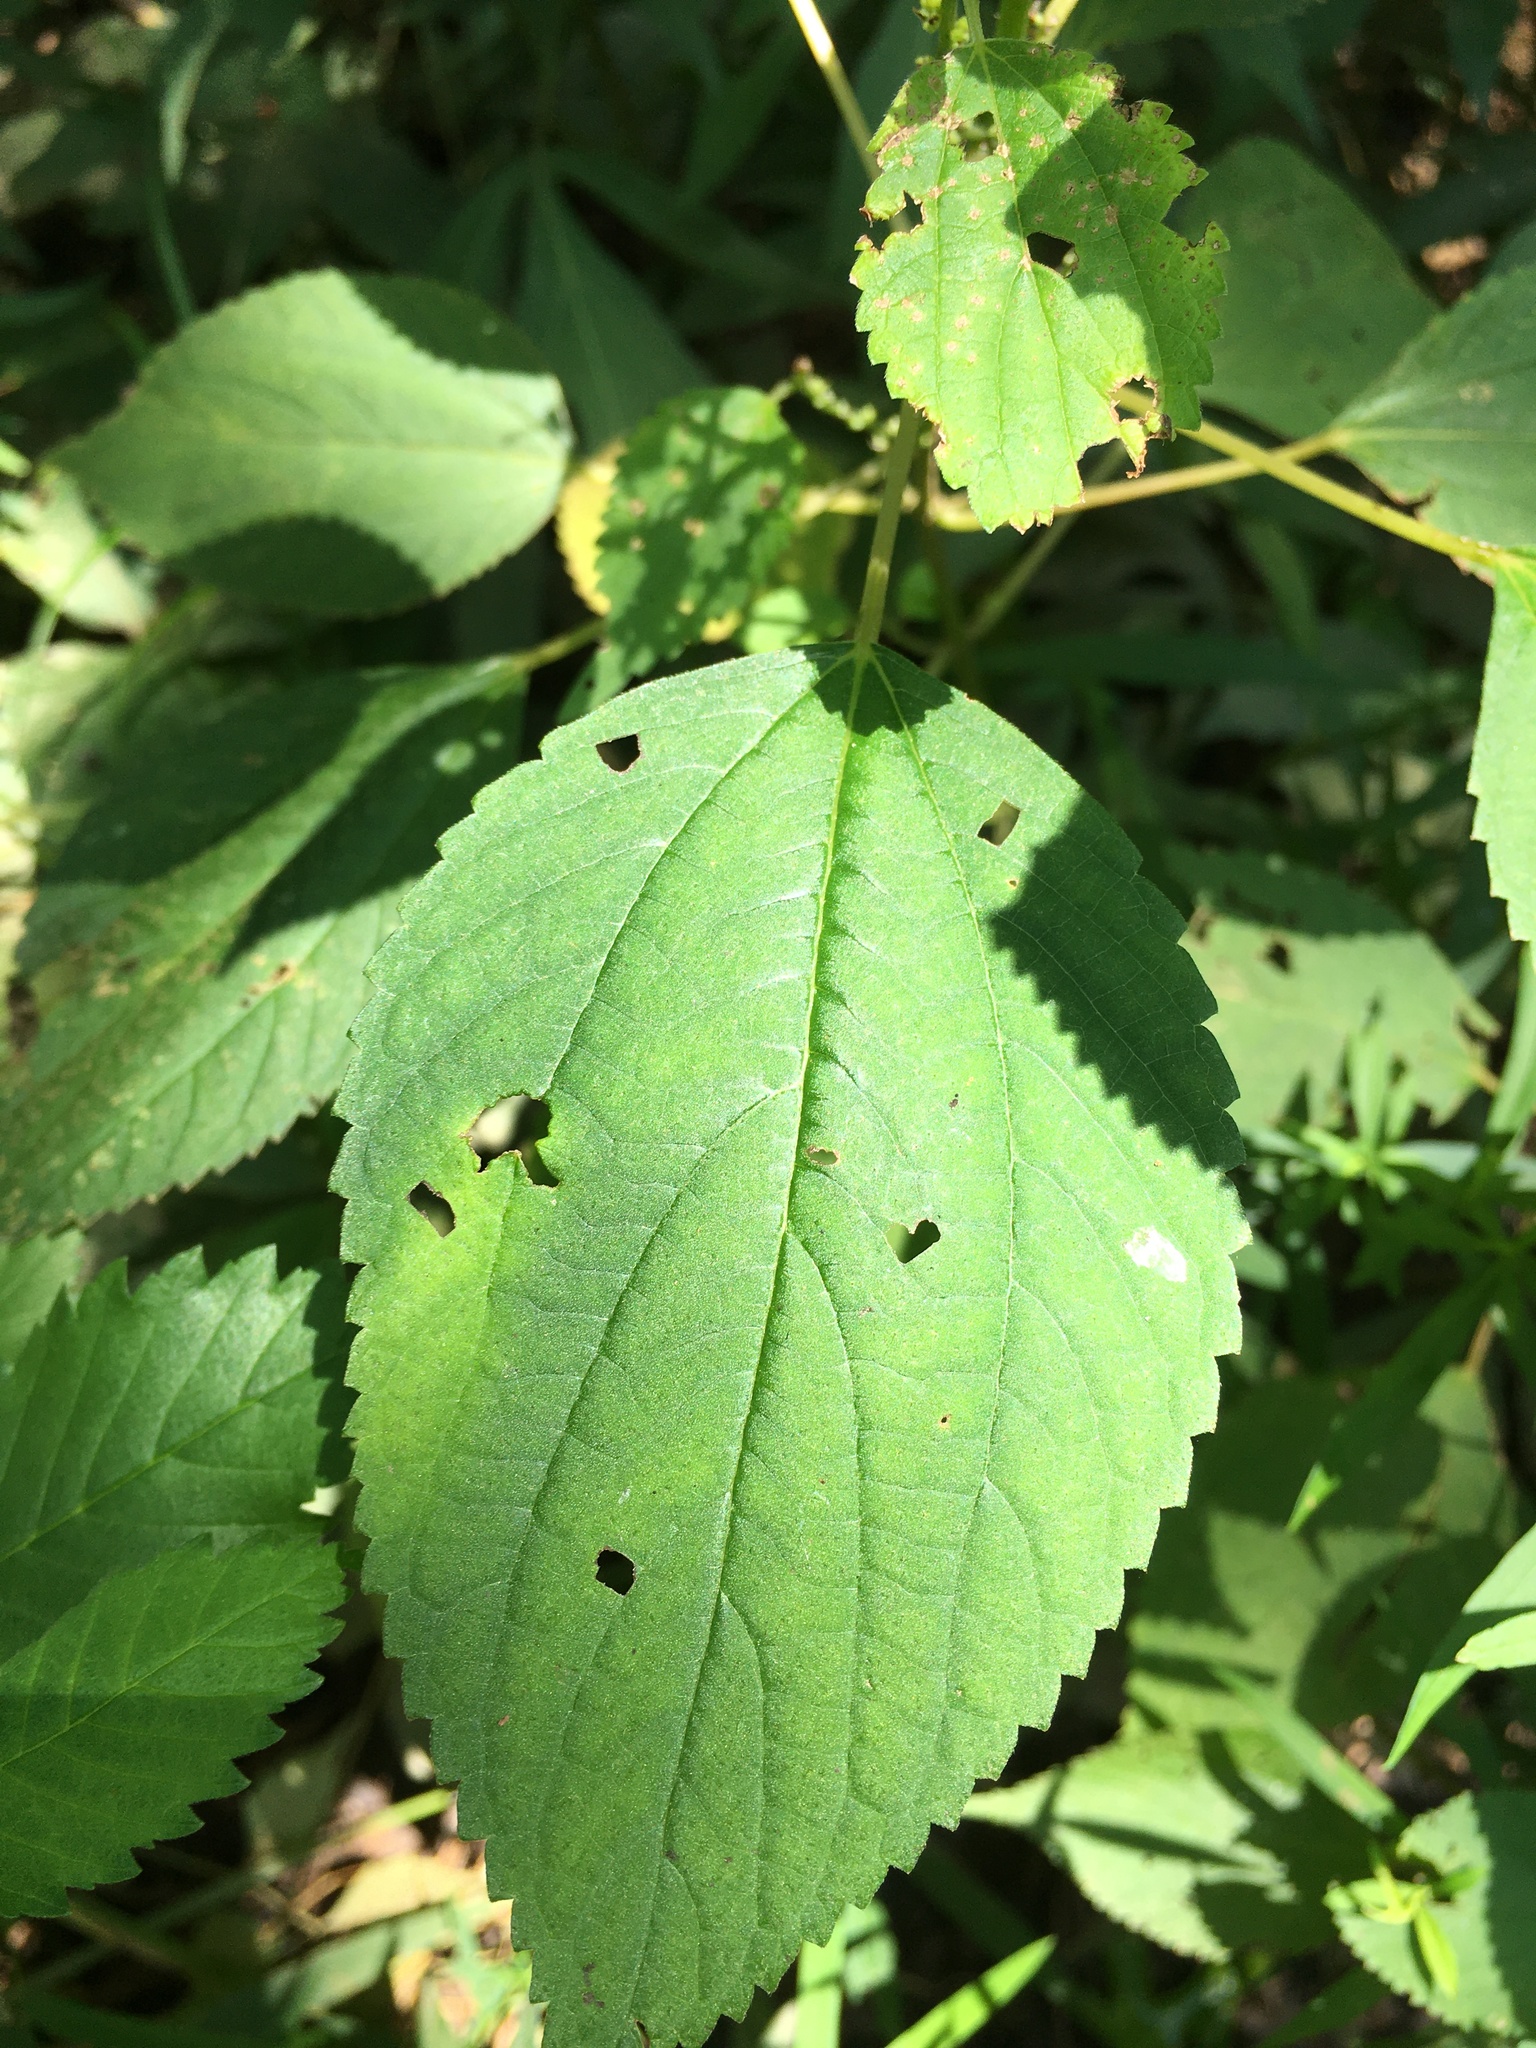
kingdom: Plantae
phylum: Tracheophyta
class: Magnoliopsida
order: Rosales
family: Urticaceae
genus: Boehmeria
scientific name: Boehmeria cylindrica
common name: Bog-hemp
